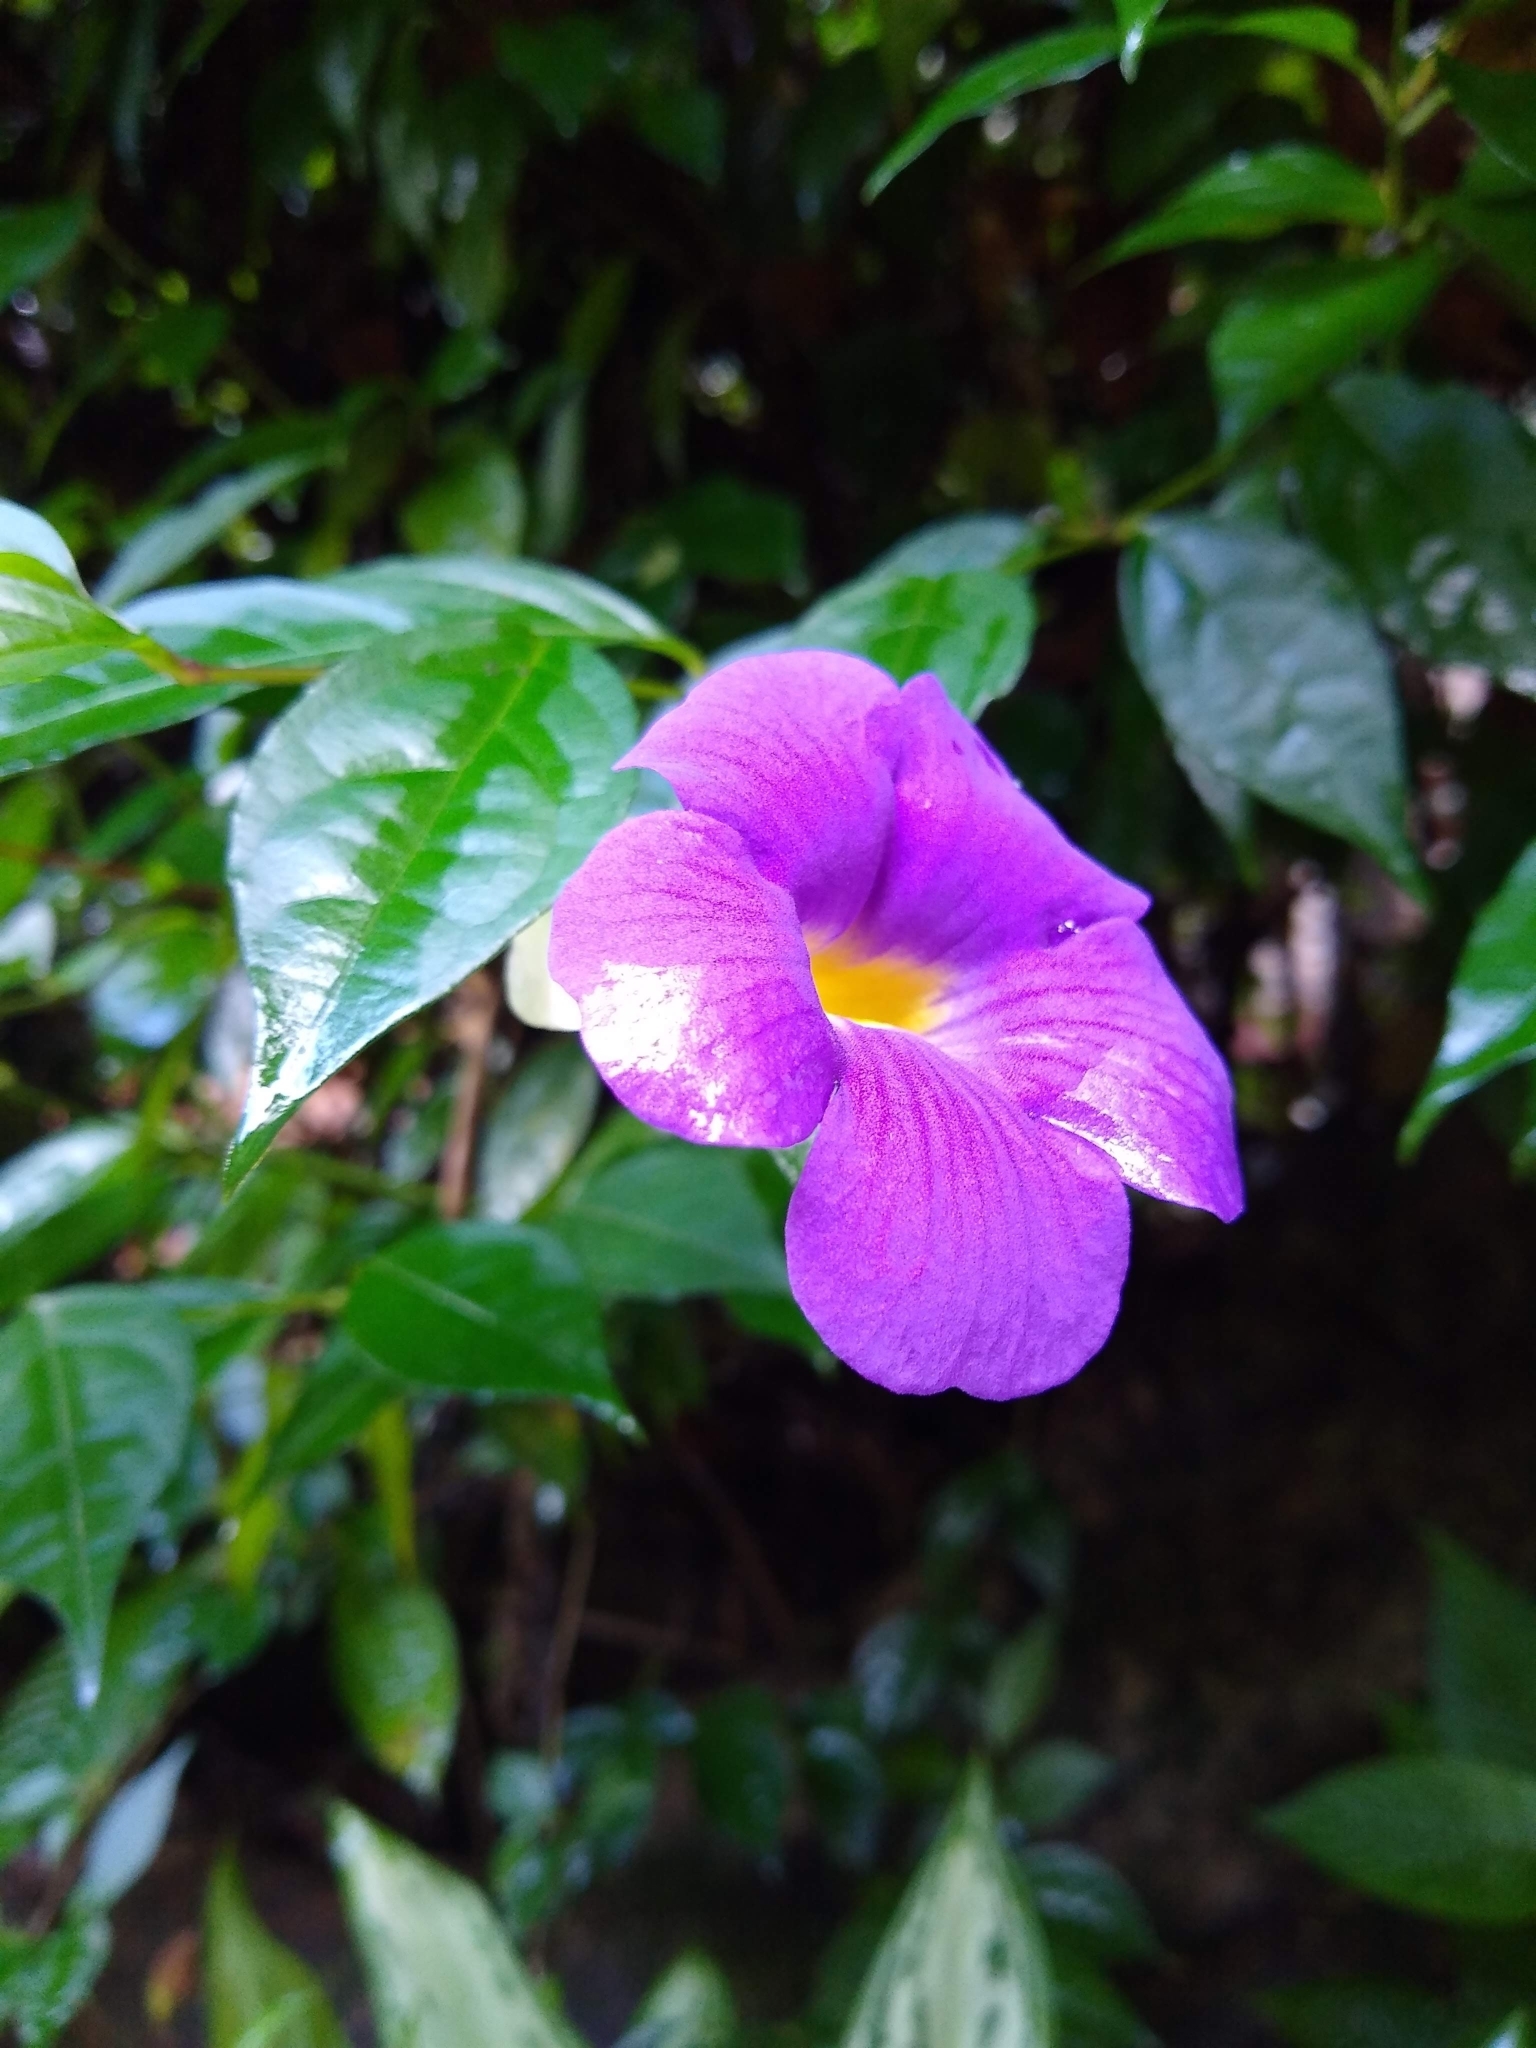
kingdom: Plantae
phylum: Tracheophyta
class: Magnoliopsida
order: Lamiales
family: Acanthaceae
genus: Thunbergia
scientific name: Thunbergia erecta
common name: Bush clockvine
